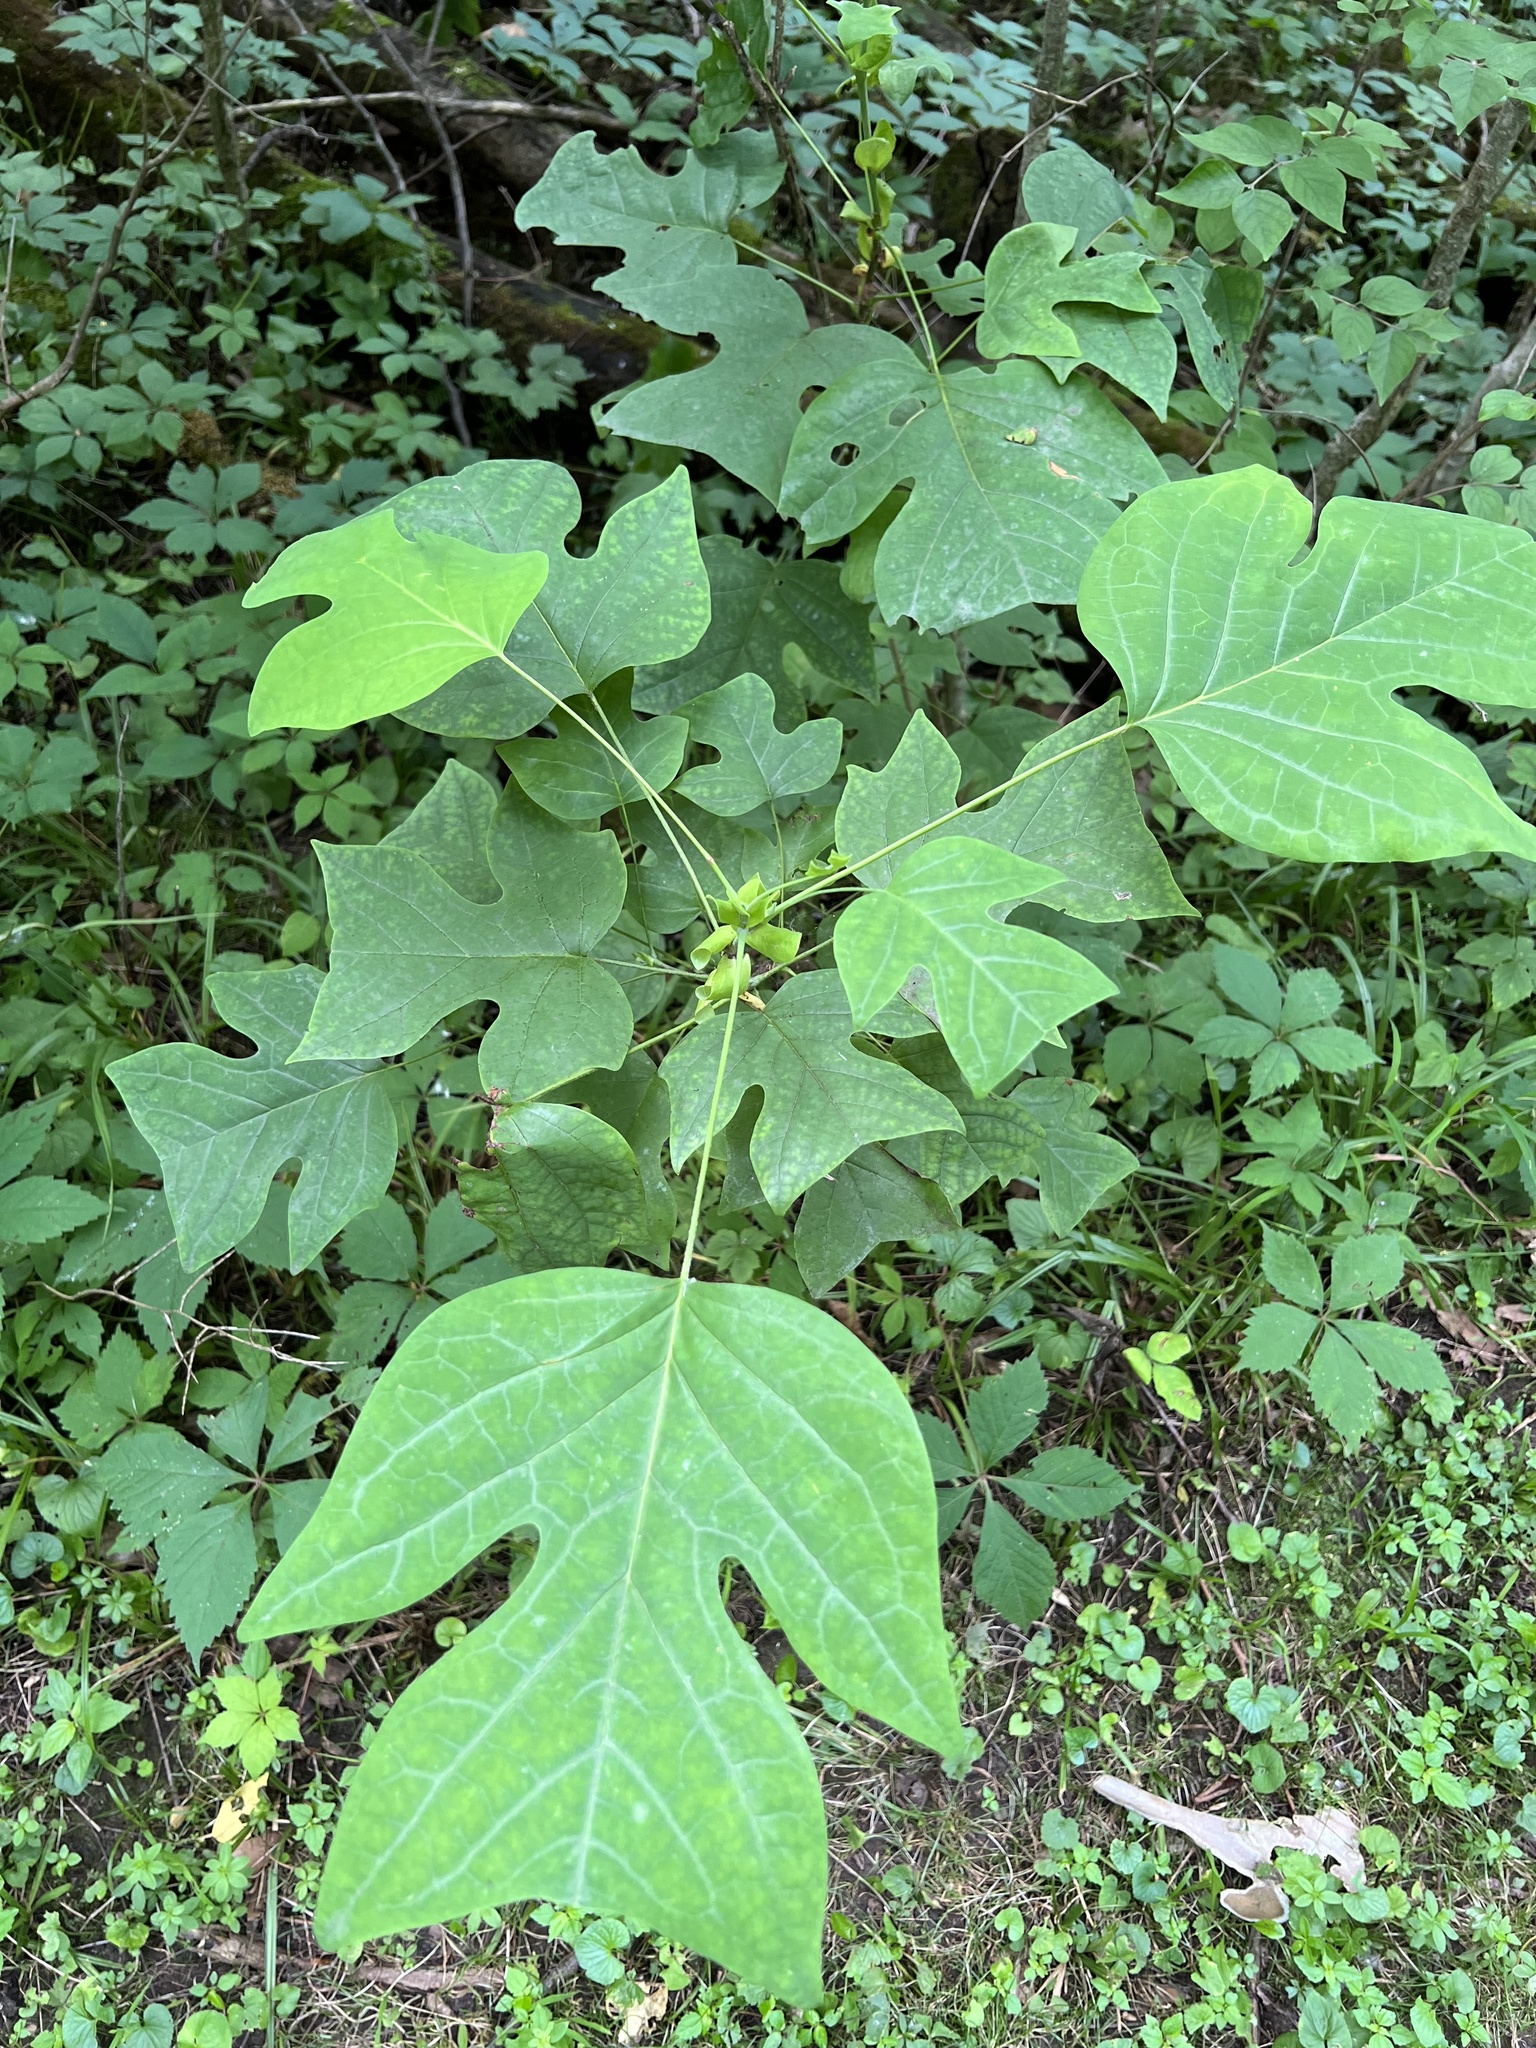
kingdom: Plantae
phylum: Tracheophyta
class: Magnoliopsida
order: Magnoliales
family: Magnoliaceae
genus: Liriodendron
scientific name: Liriodendron tulipifera
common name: Tulip tree
